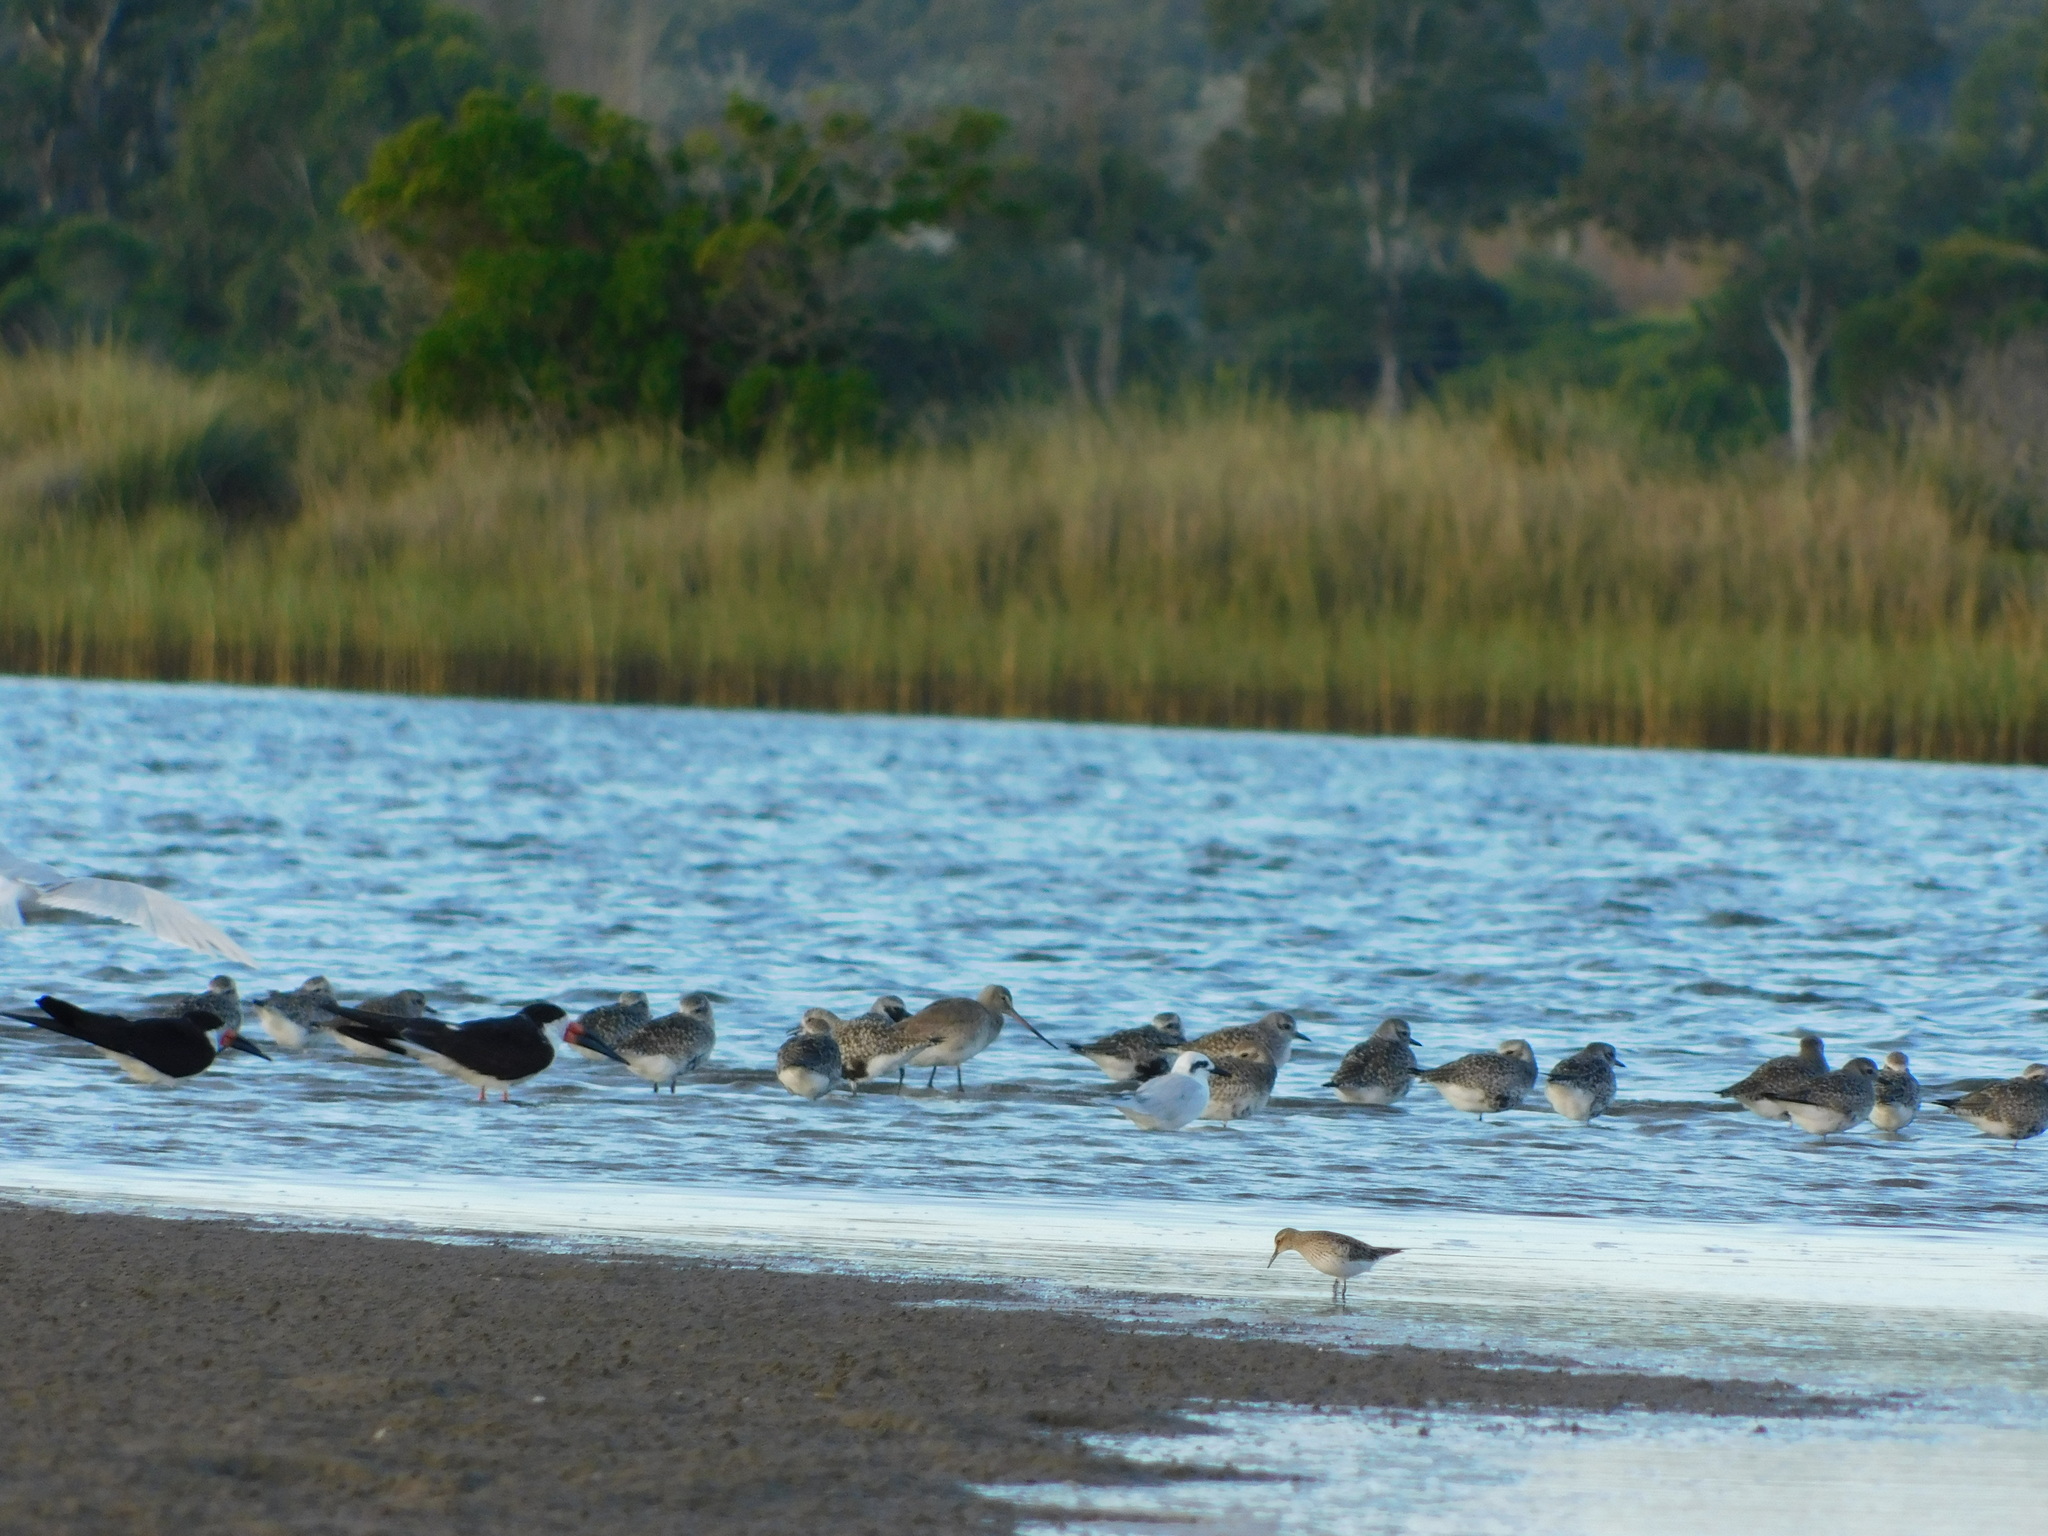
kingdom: Animalia
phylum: Chordata
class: Aves
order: Charadriiformes
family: Scolopacidae
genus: Limosa
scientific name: Limosa haemastica
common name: Hudsonian godwit
